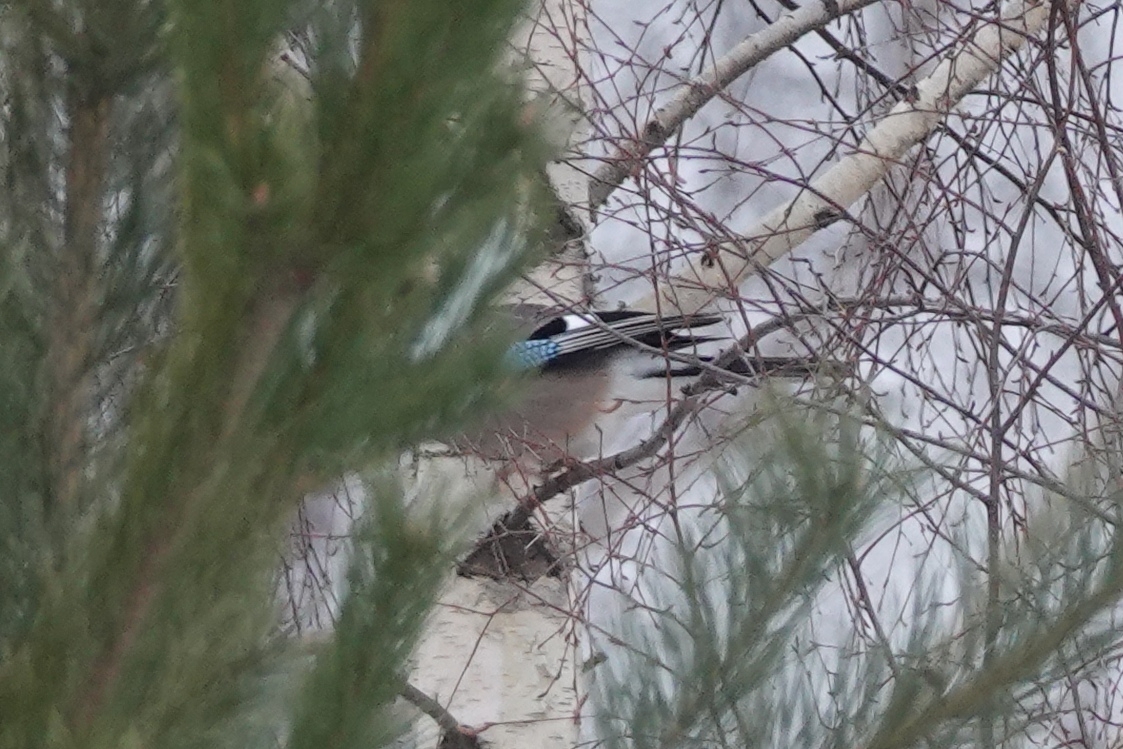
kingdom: Animalia
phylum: Chordata
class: Aves
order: Passeriformes
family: Corvidae
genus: Garrulus
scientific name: Garrulus glandarius
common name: Eurasian jay
